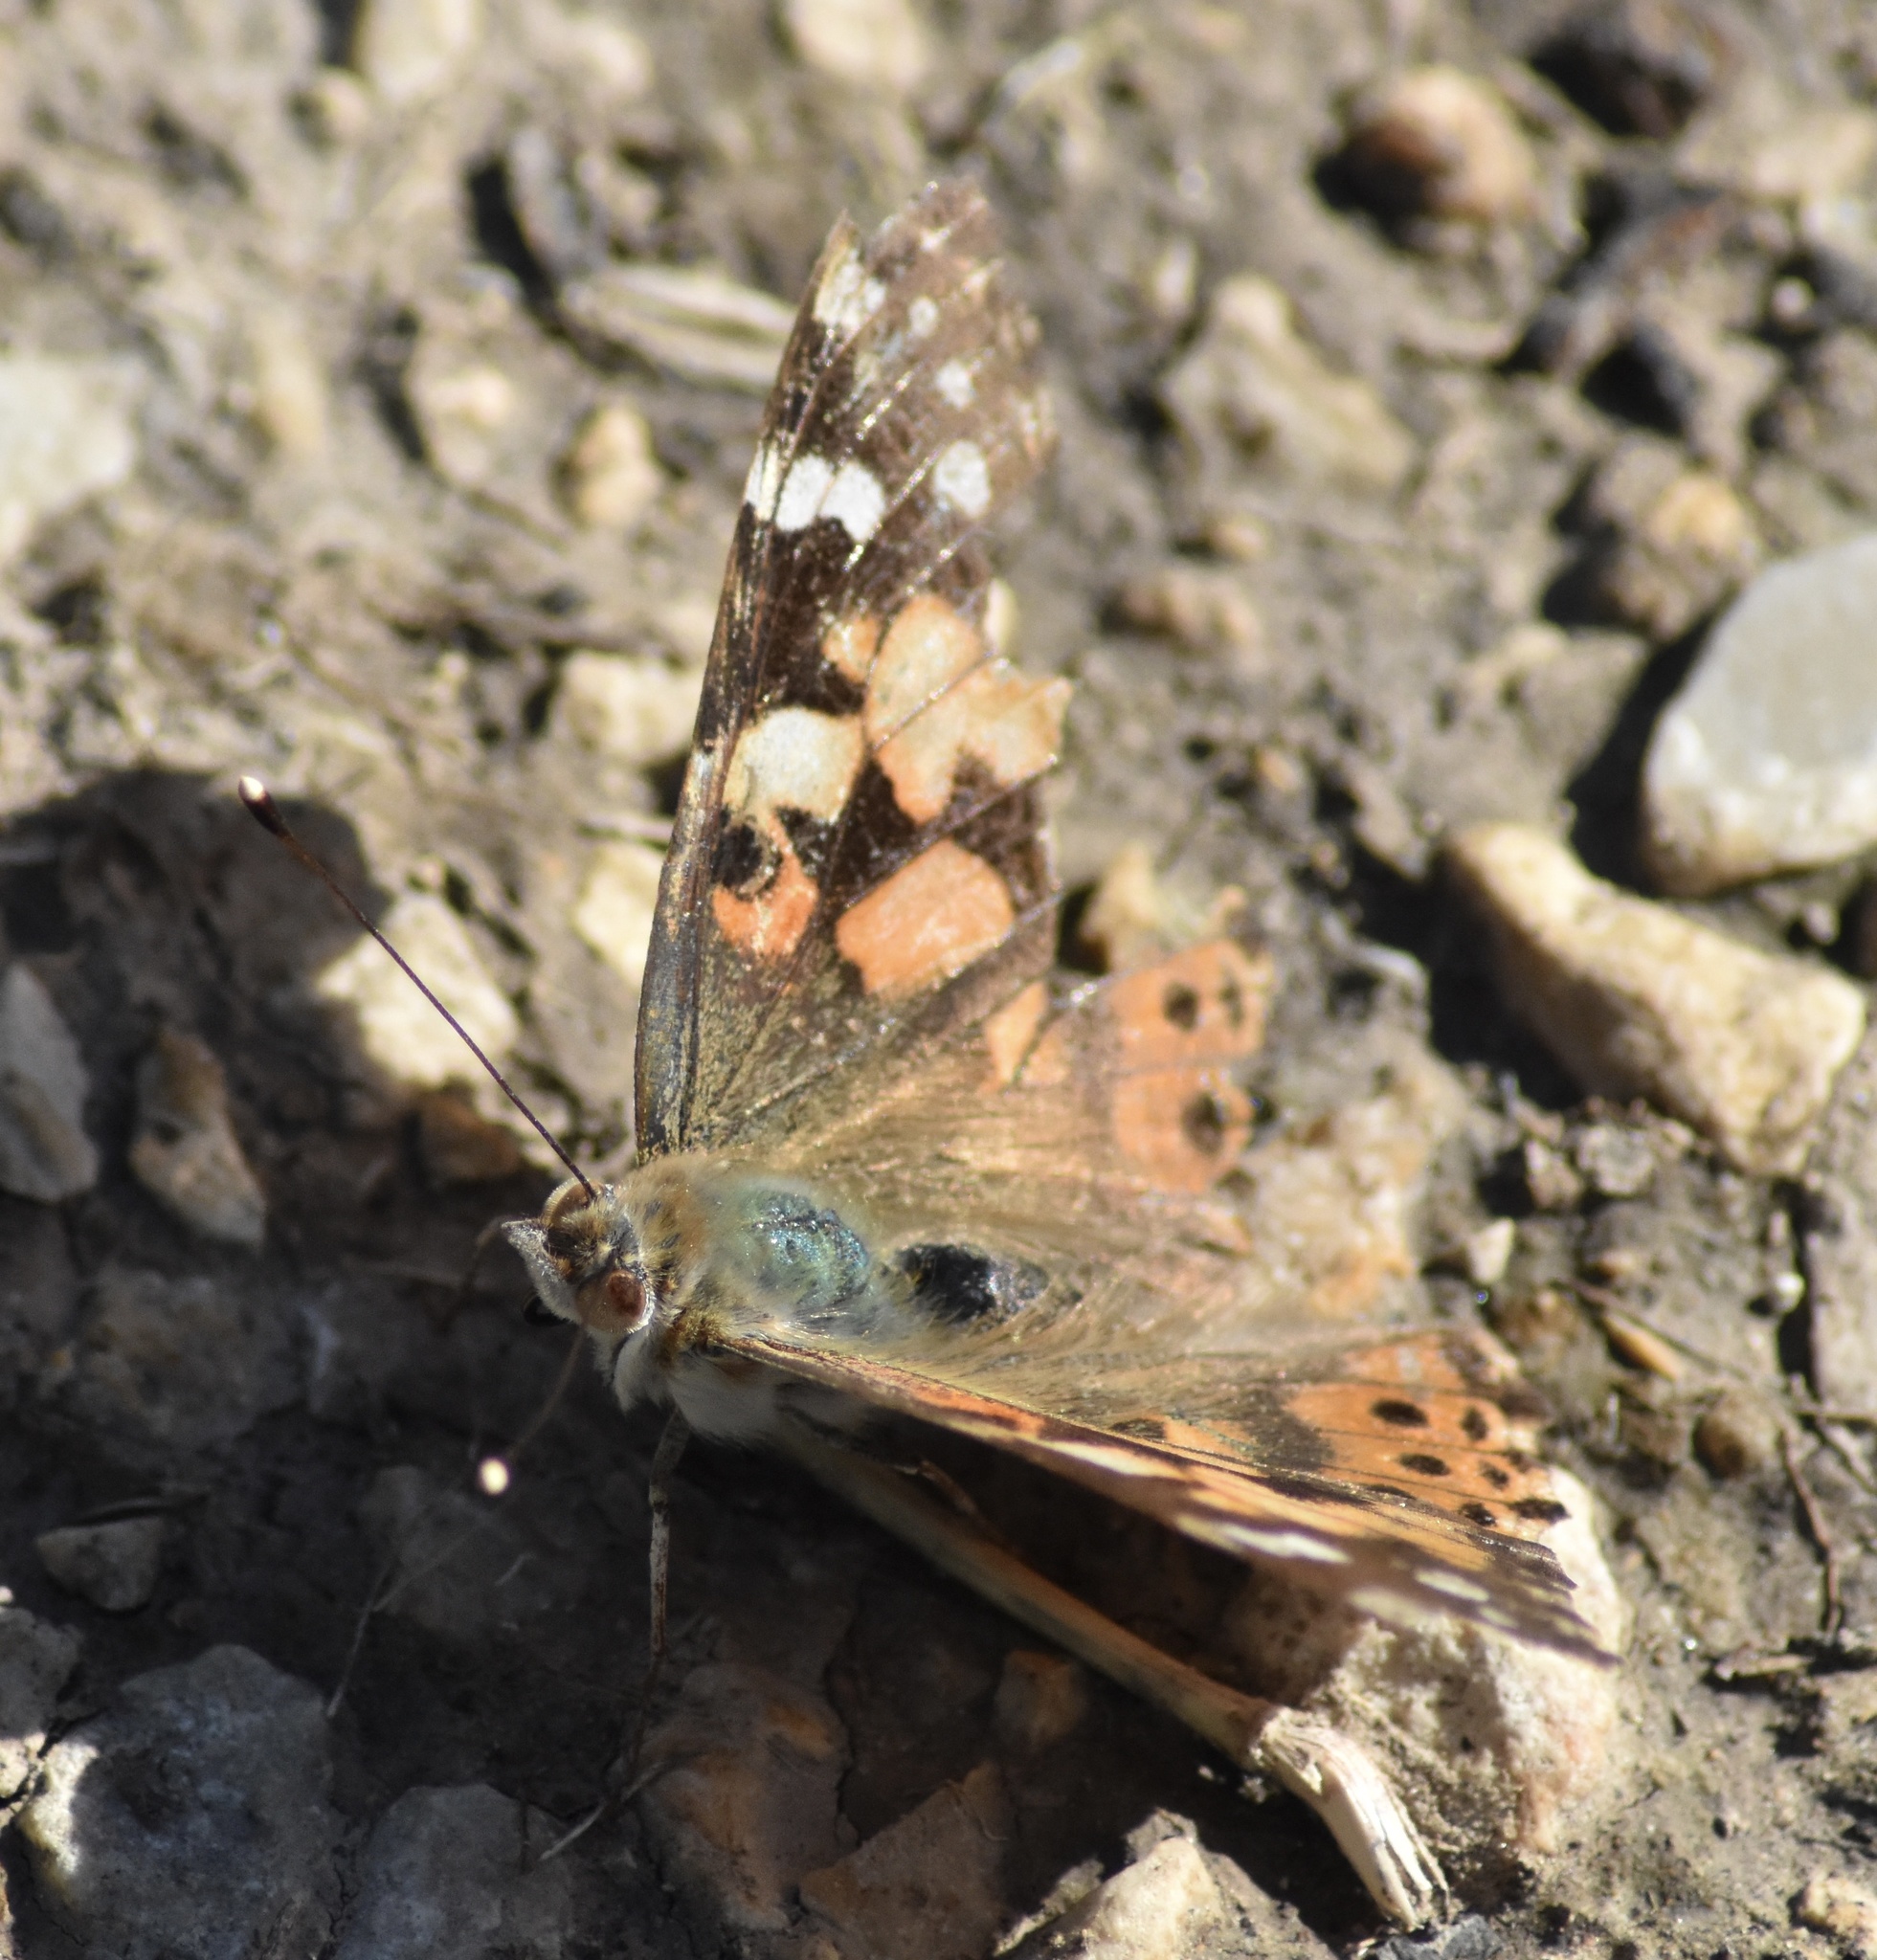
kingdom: Animalia
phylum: Arthropoda
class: Insecta
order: Lepidoptera
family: Nymphalidae
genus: Vanessa
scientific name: Vanessa cardui
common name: Painted lady
